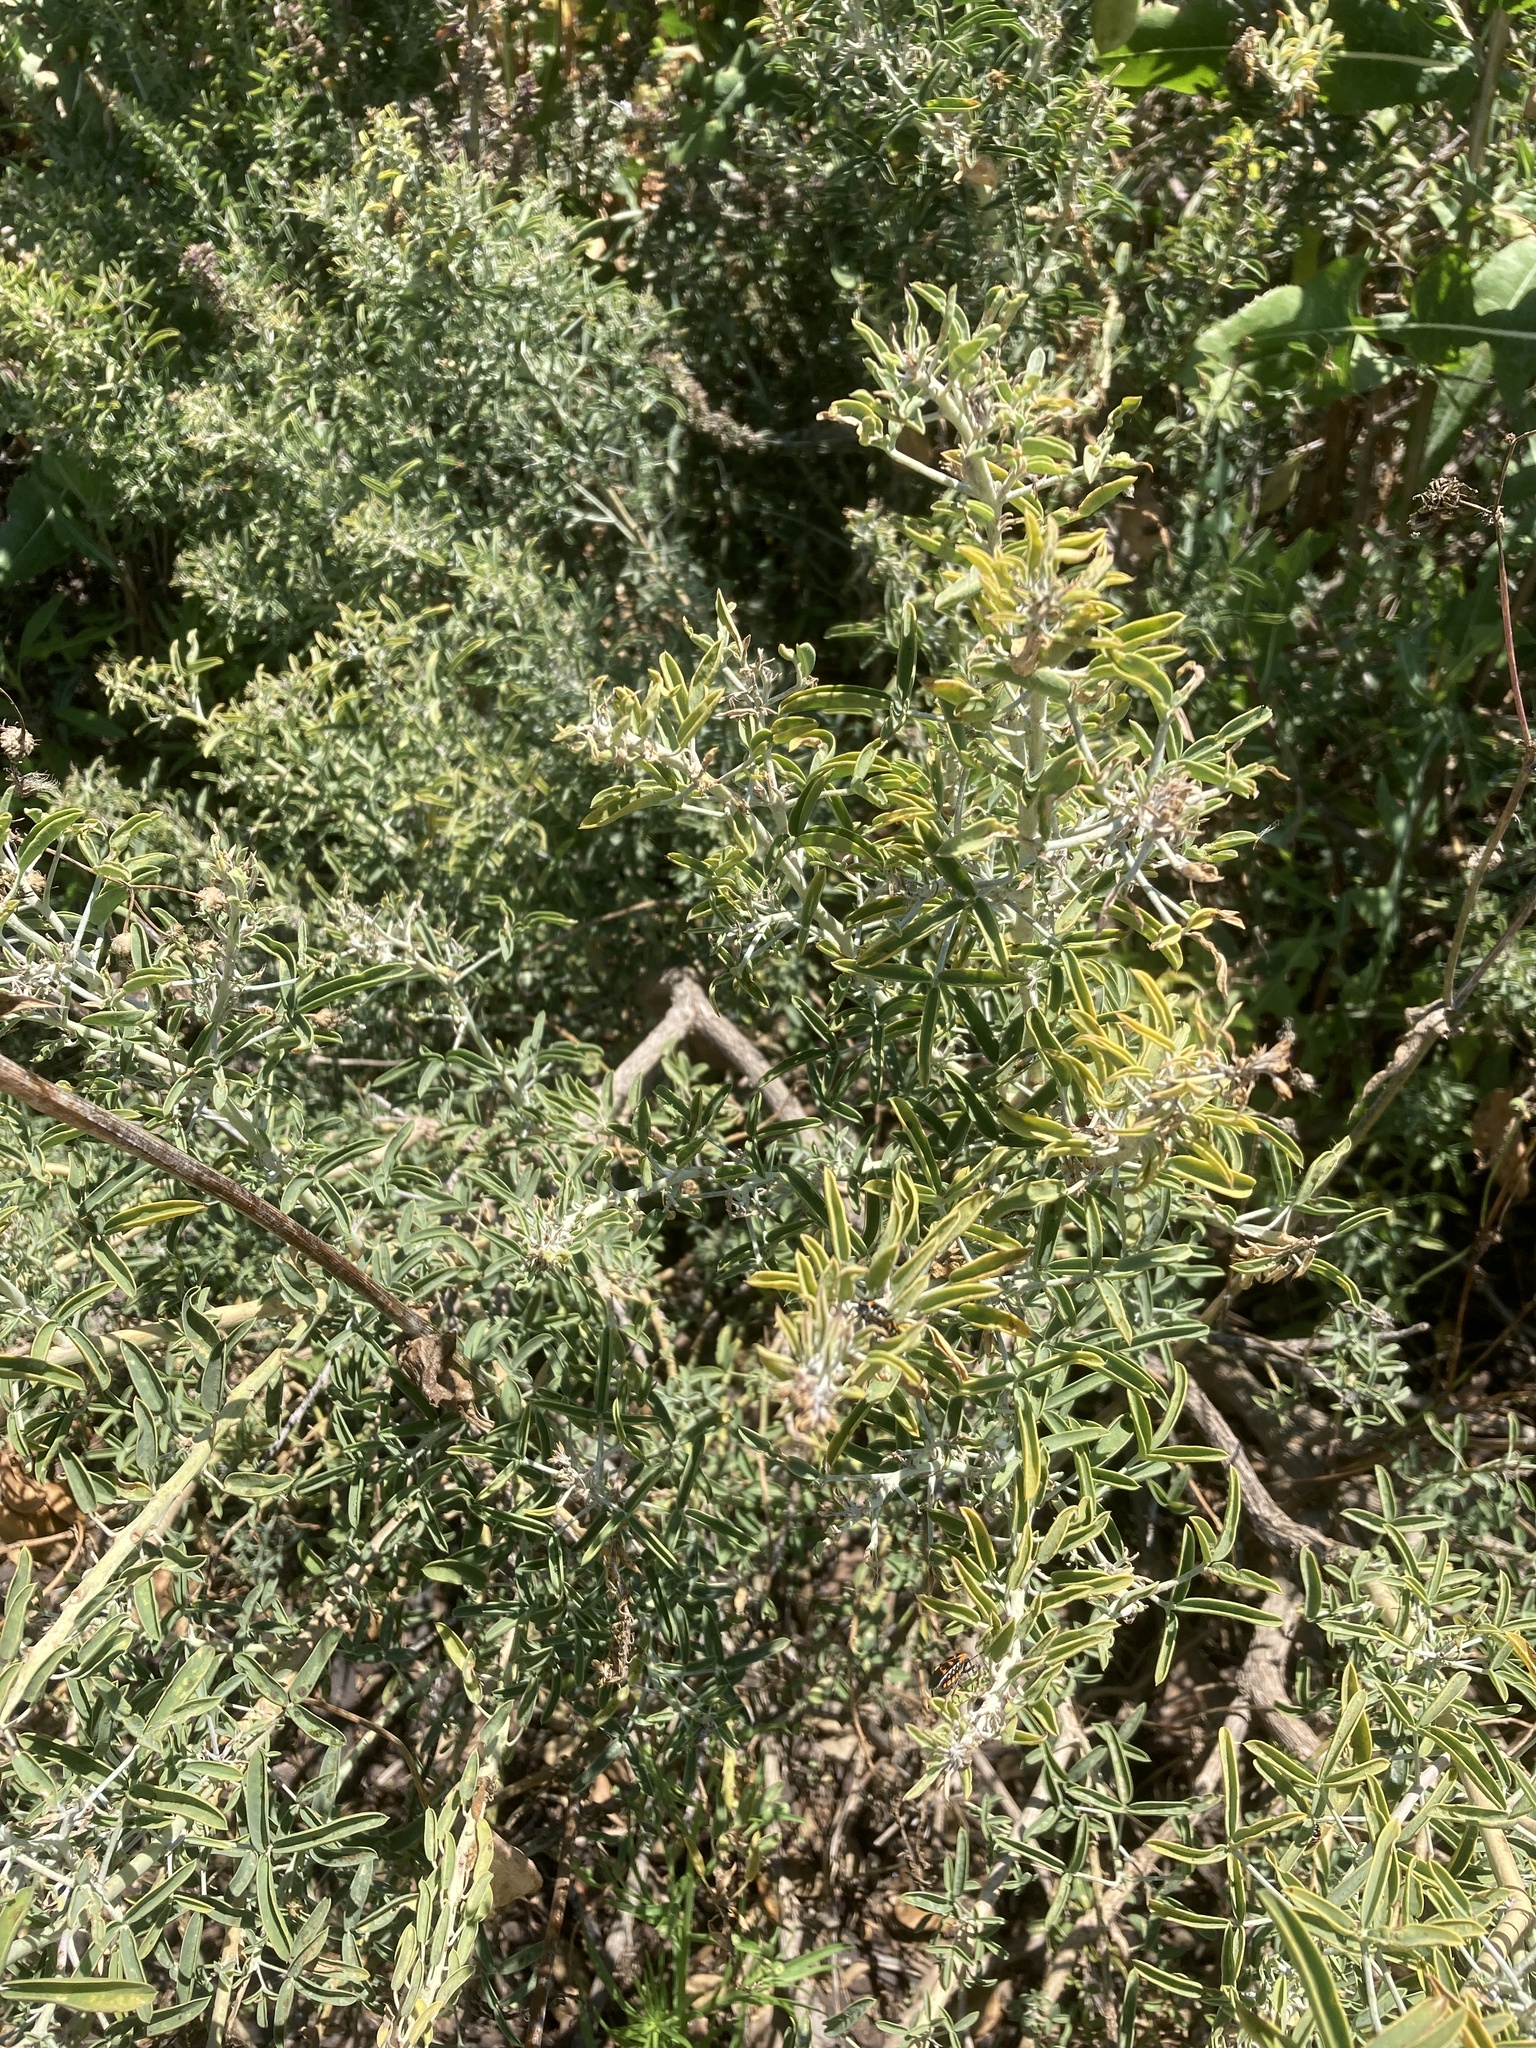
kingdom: Plantae
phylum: Tracheophyta
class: Magnoliopsida
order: Brassicales
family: Cleomaceae
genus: Cleomella
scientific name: Cleomella arborea
